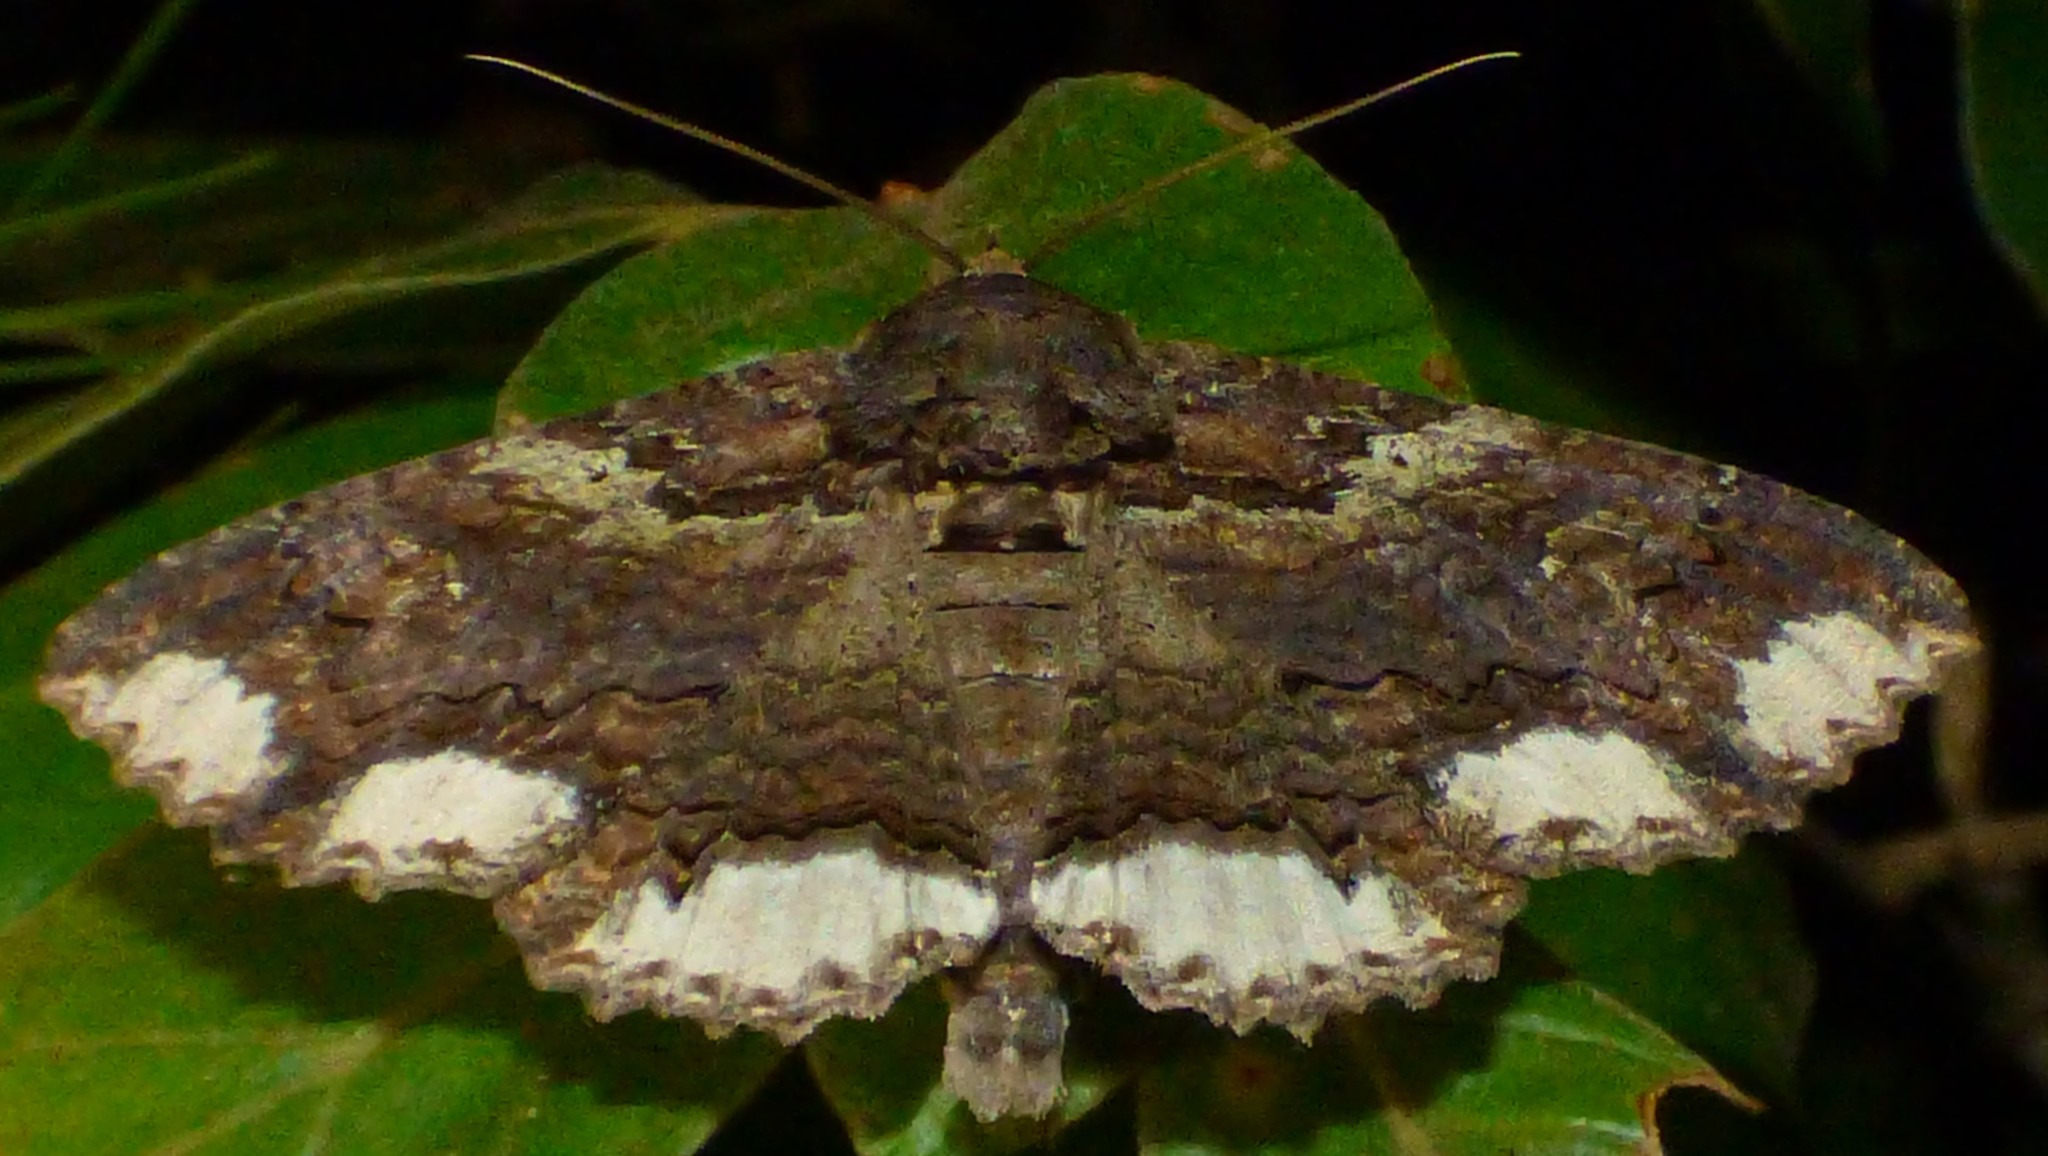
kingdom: Animalia
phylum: Arthropoda
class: Insecta
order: Lepidoptera
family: Erebidae
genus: Zale
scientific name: Zale lunata
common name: Lunate zale moth
